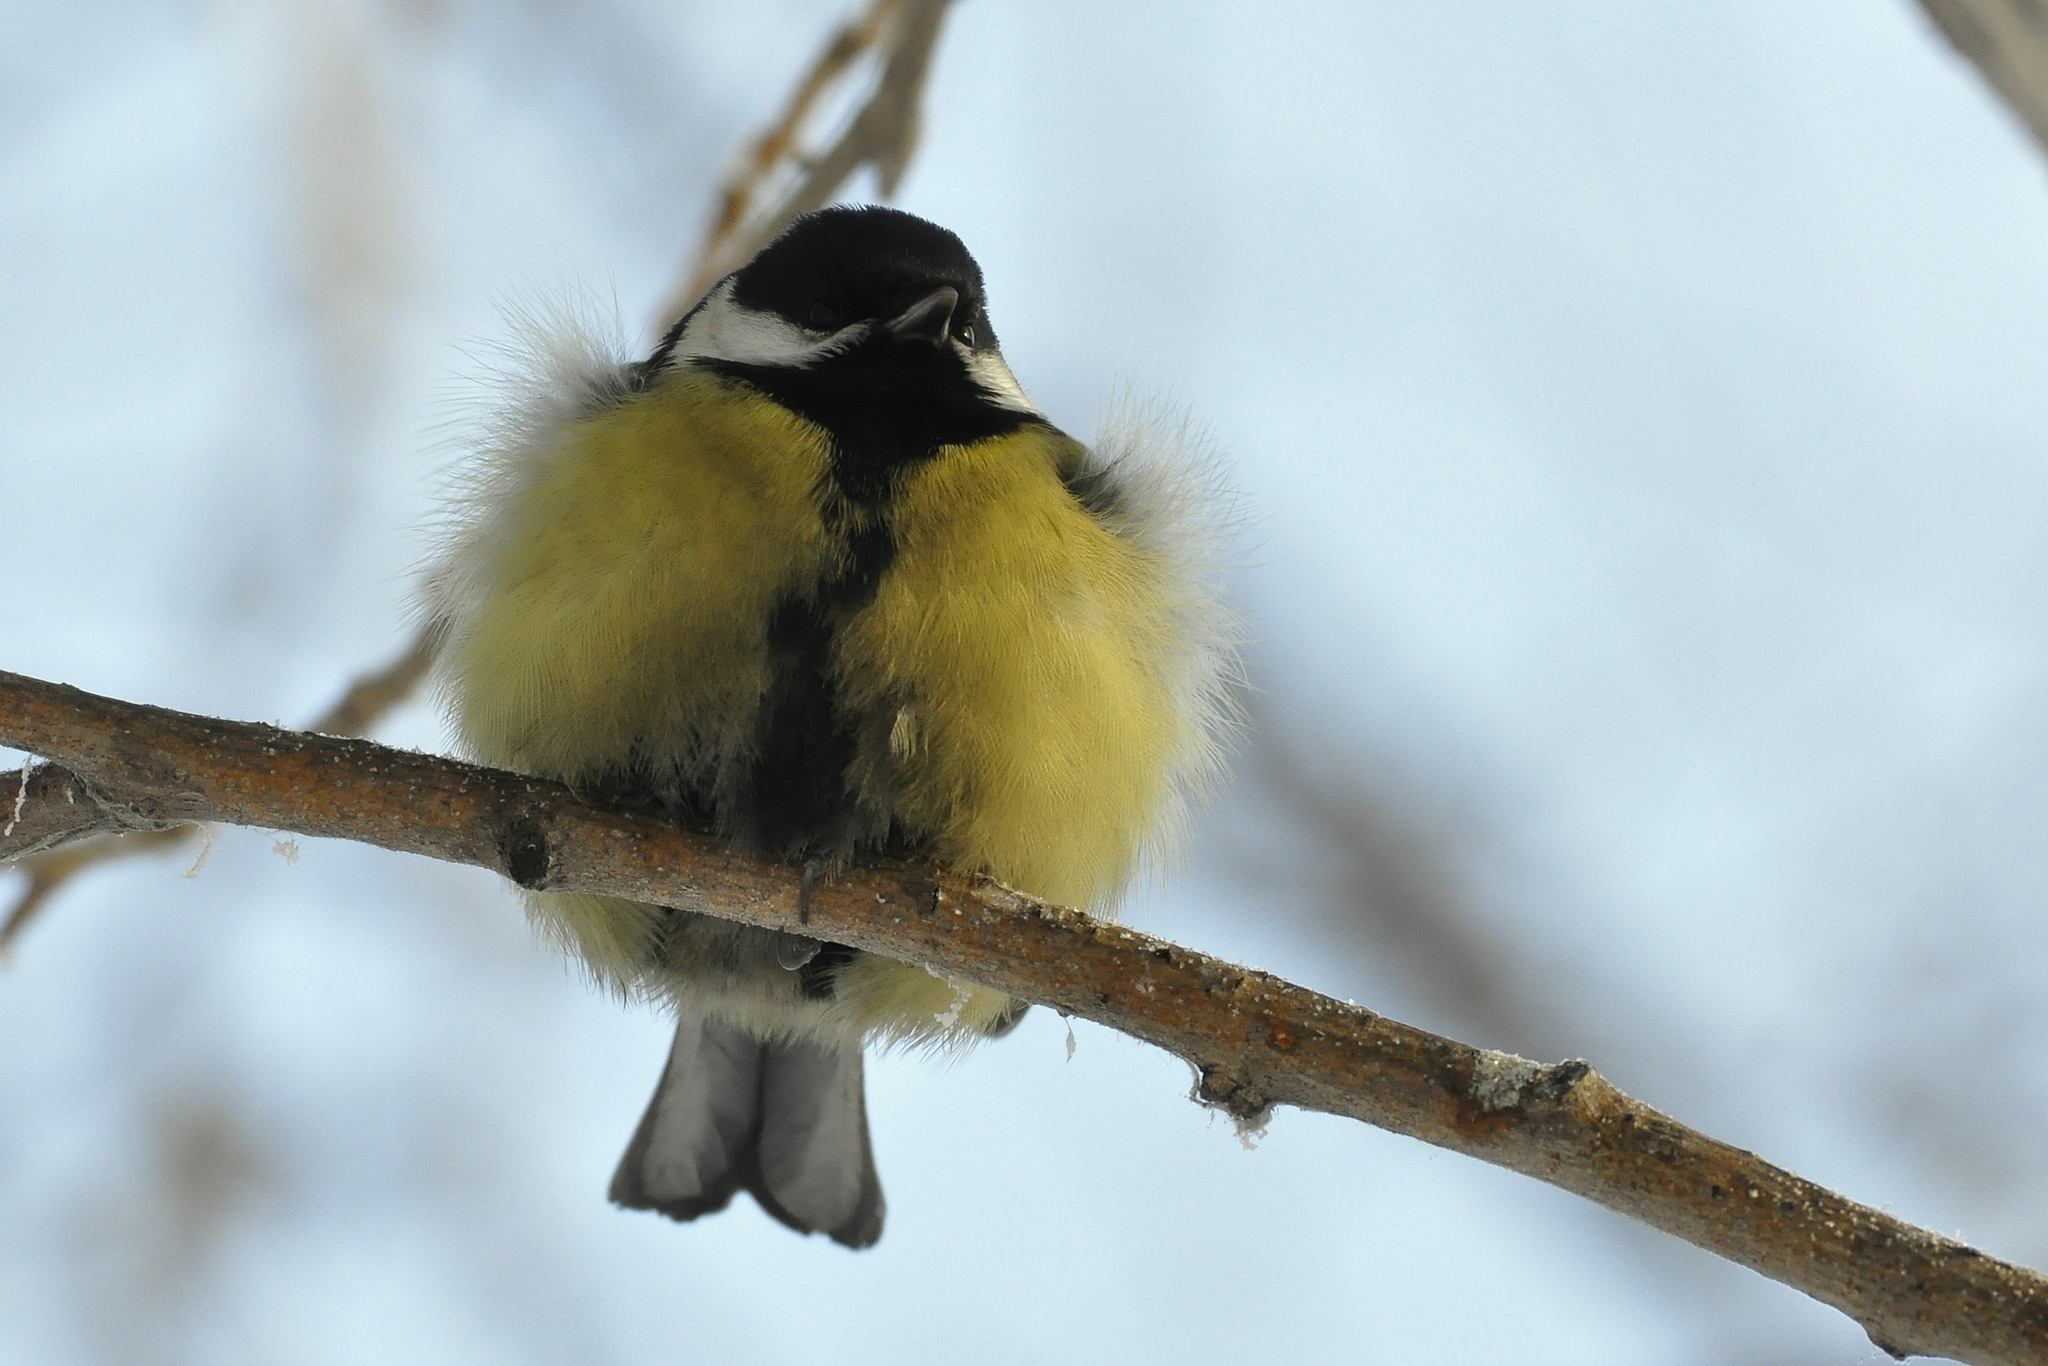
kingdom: Animalia
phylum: Chordata
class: Aves
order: Passeriformes
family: Paridae
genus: Parus
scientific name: Parus major
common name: Great tit
